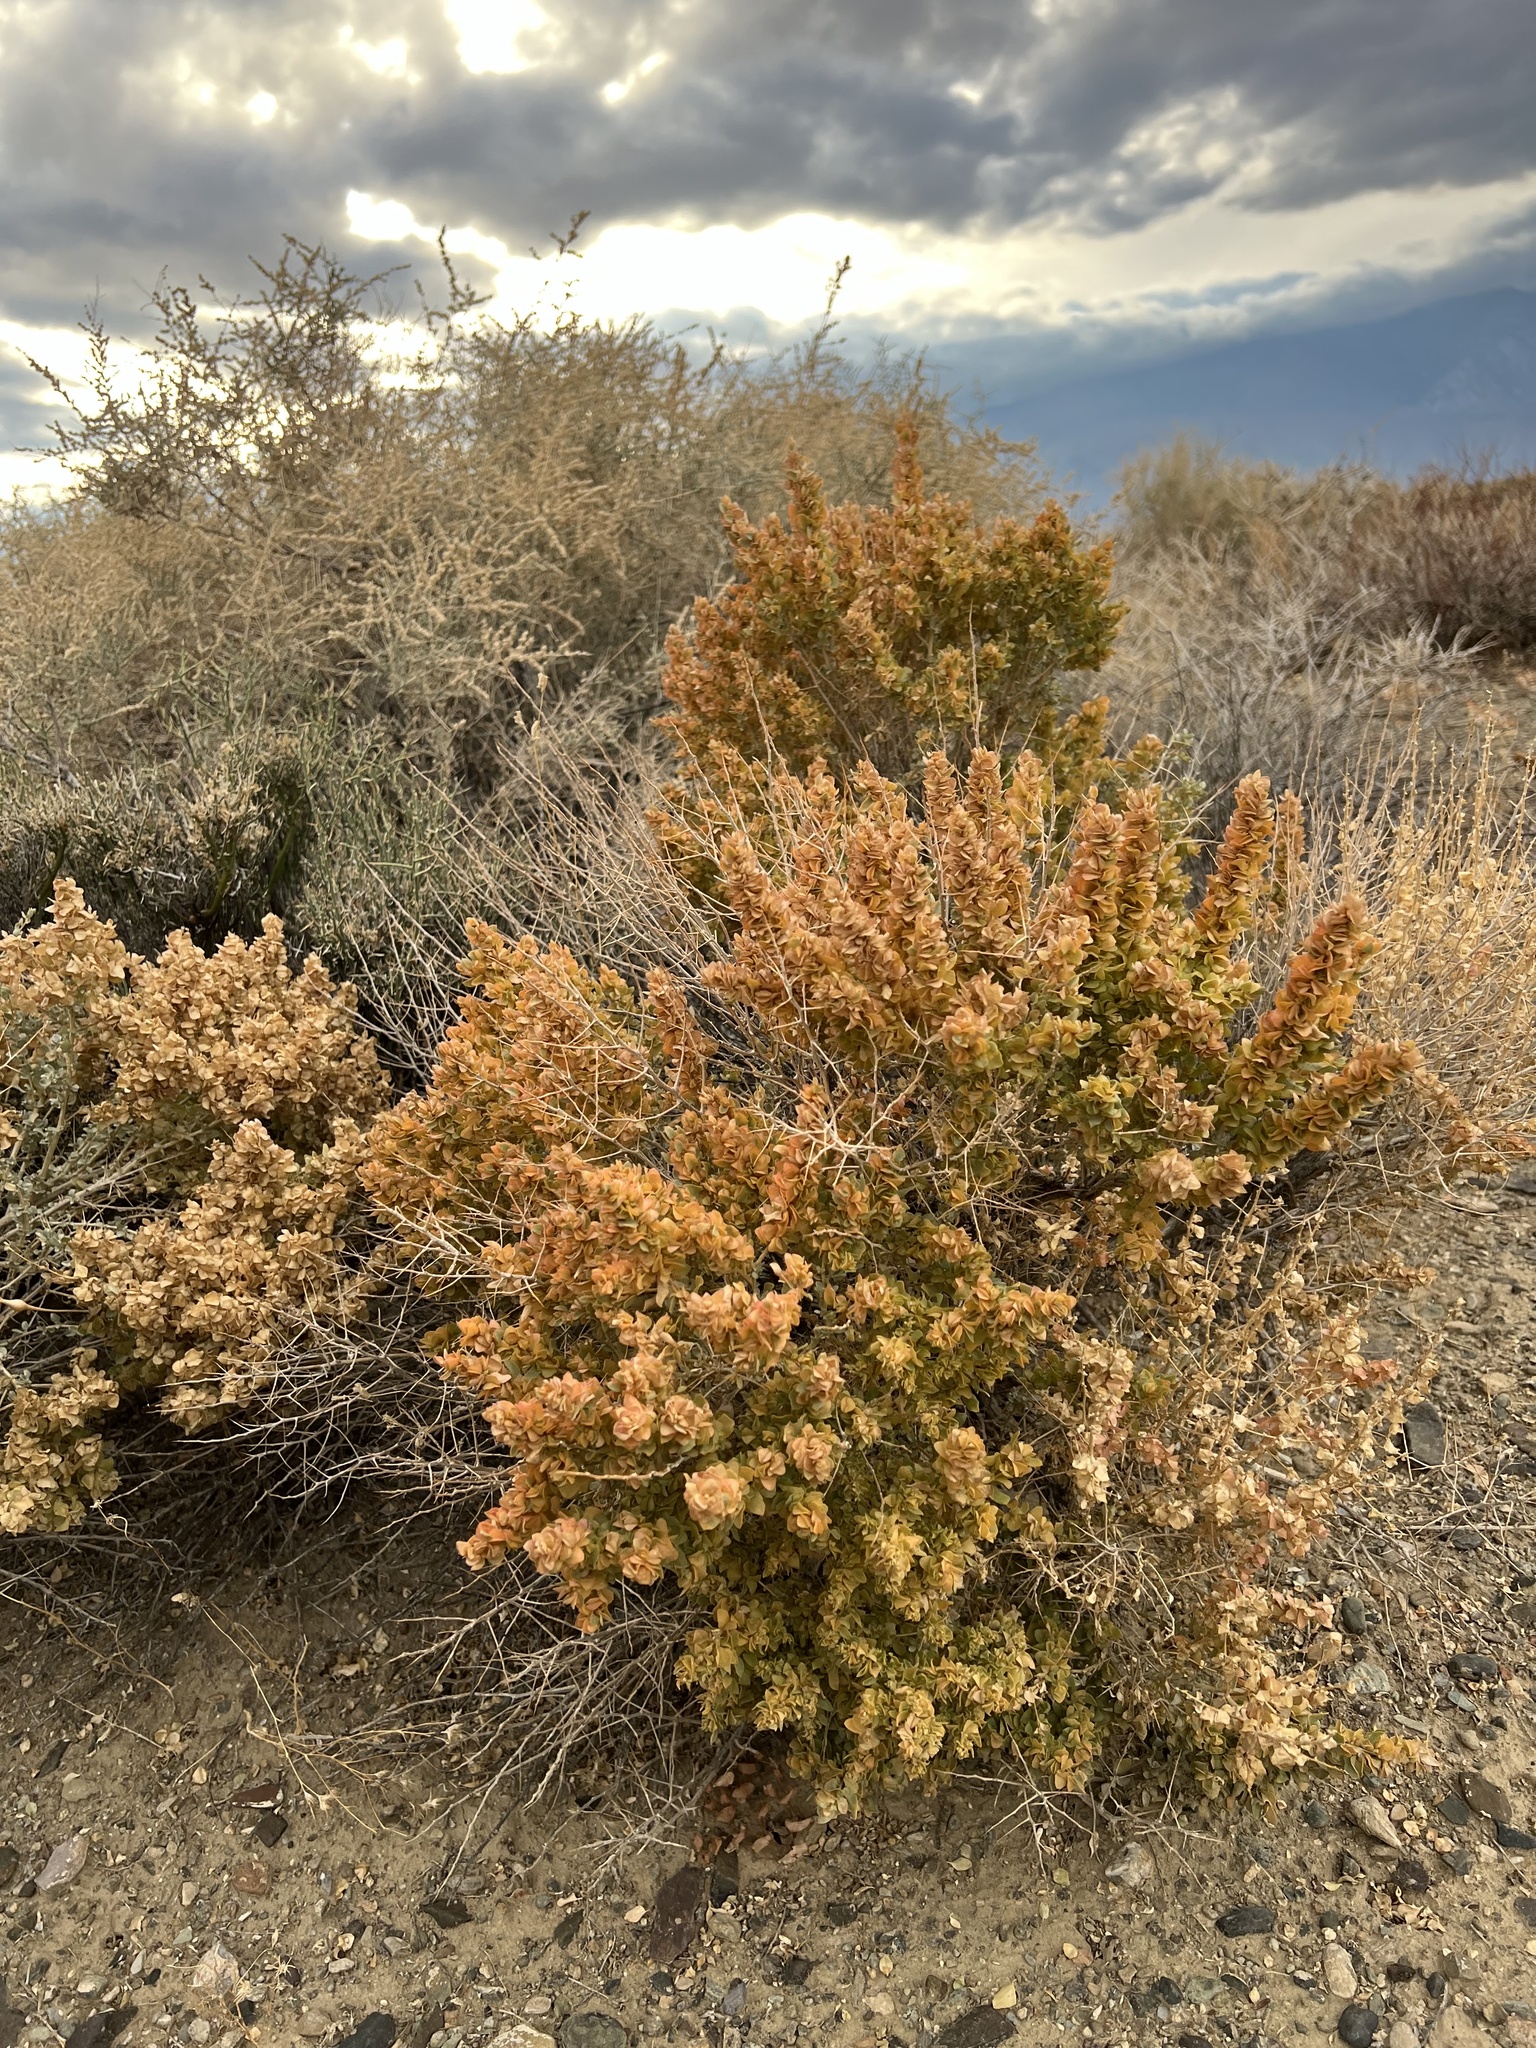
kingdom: Plantae
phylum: Tracheophyta
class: Magnoliopsida
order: Caryophyllales
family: Amaranthaceae
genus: Atriplex
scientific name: Atriplex confertifolia
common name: Shadscale
